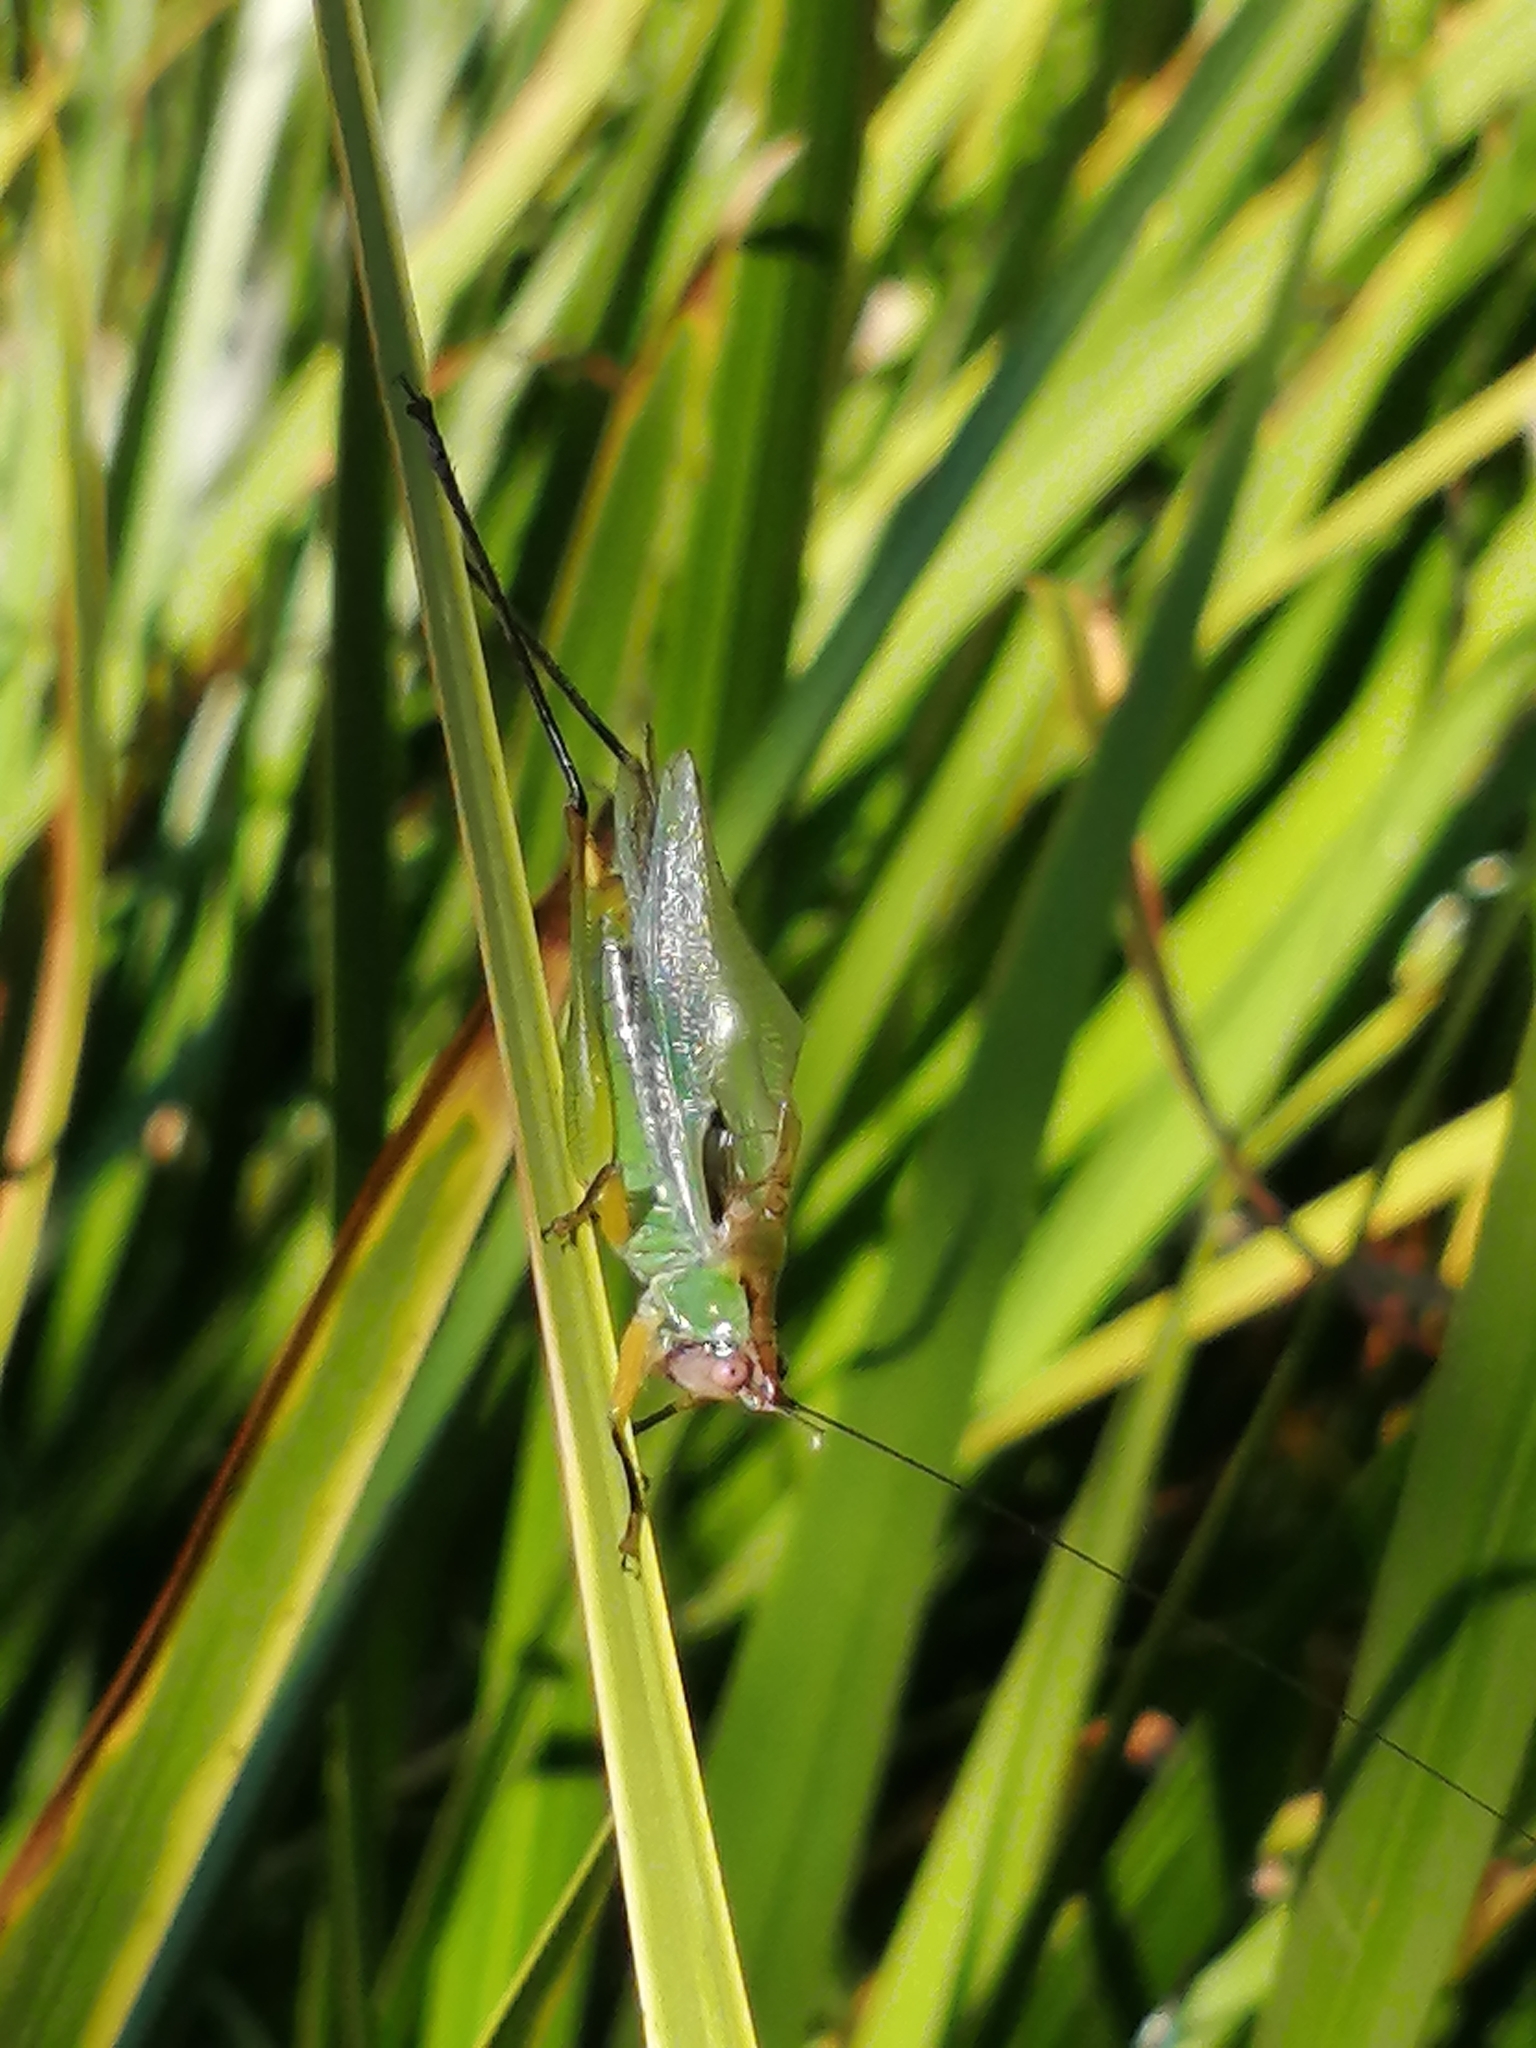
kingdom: Animalia
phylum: Arthropoda
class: Insecta
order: Orthoptera
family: Tettigoniidae
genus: Orchelimum
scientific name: Orchelimum nigripes
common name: Black-legged meadow katydid
